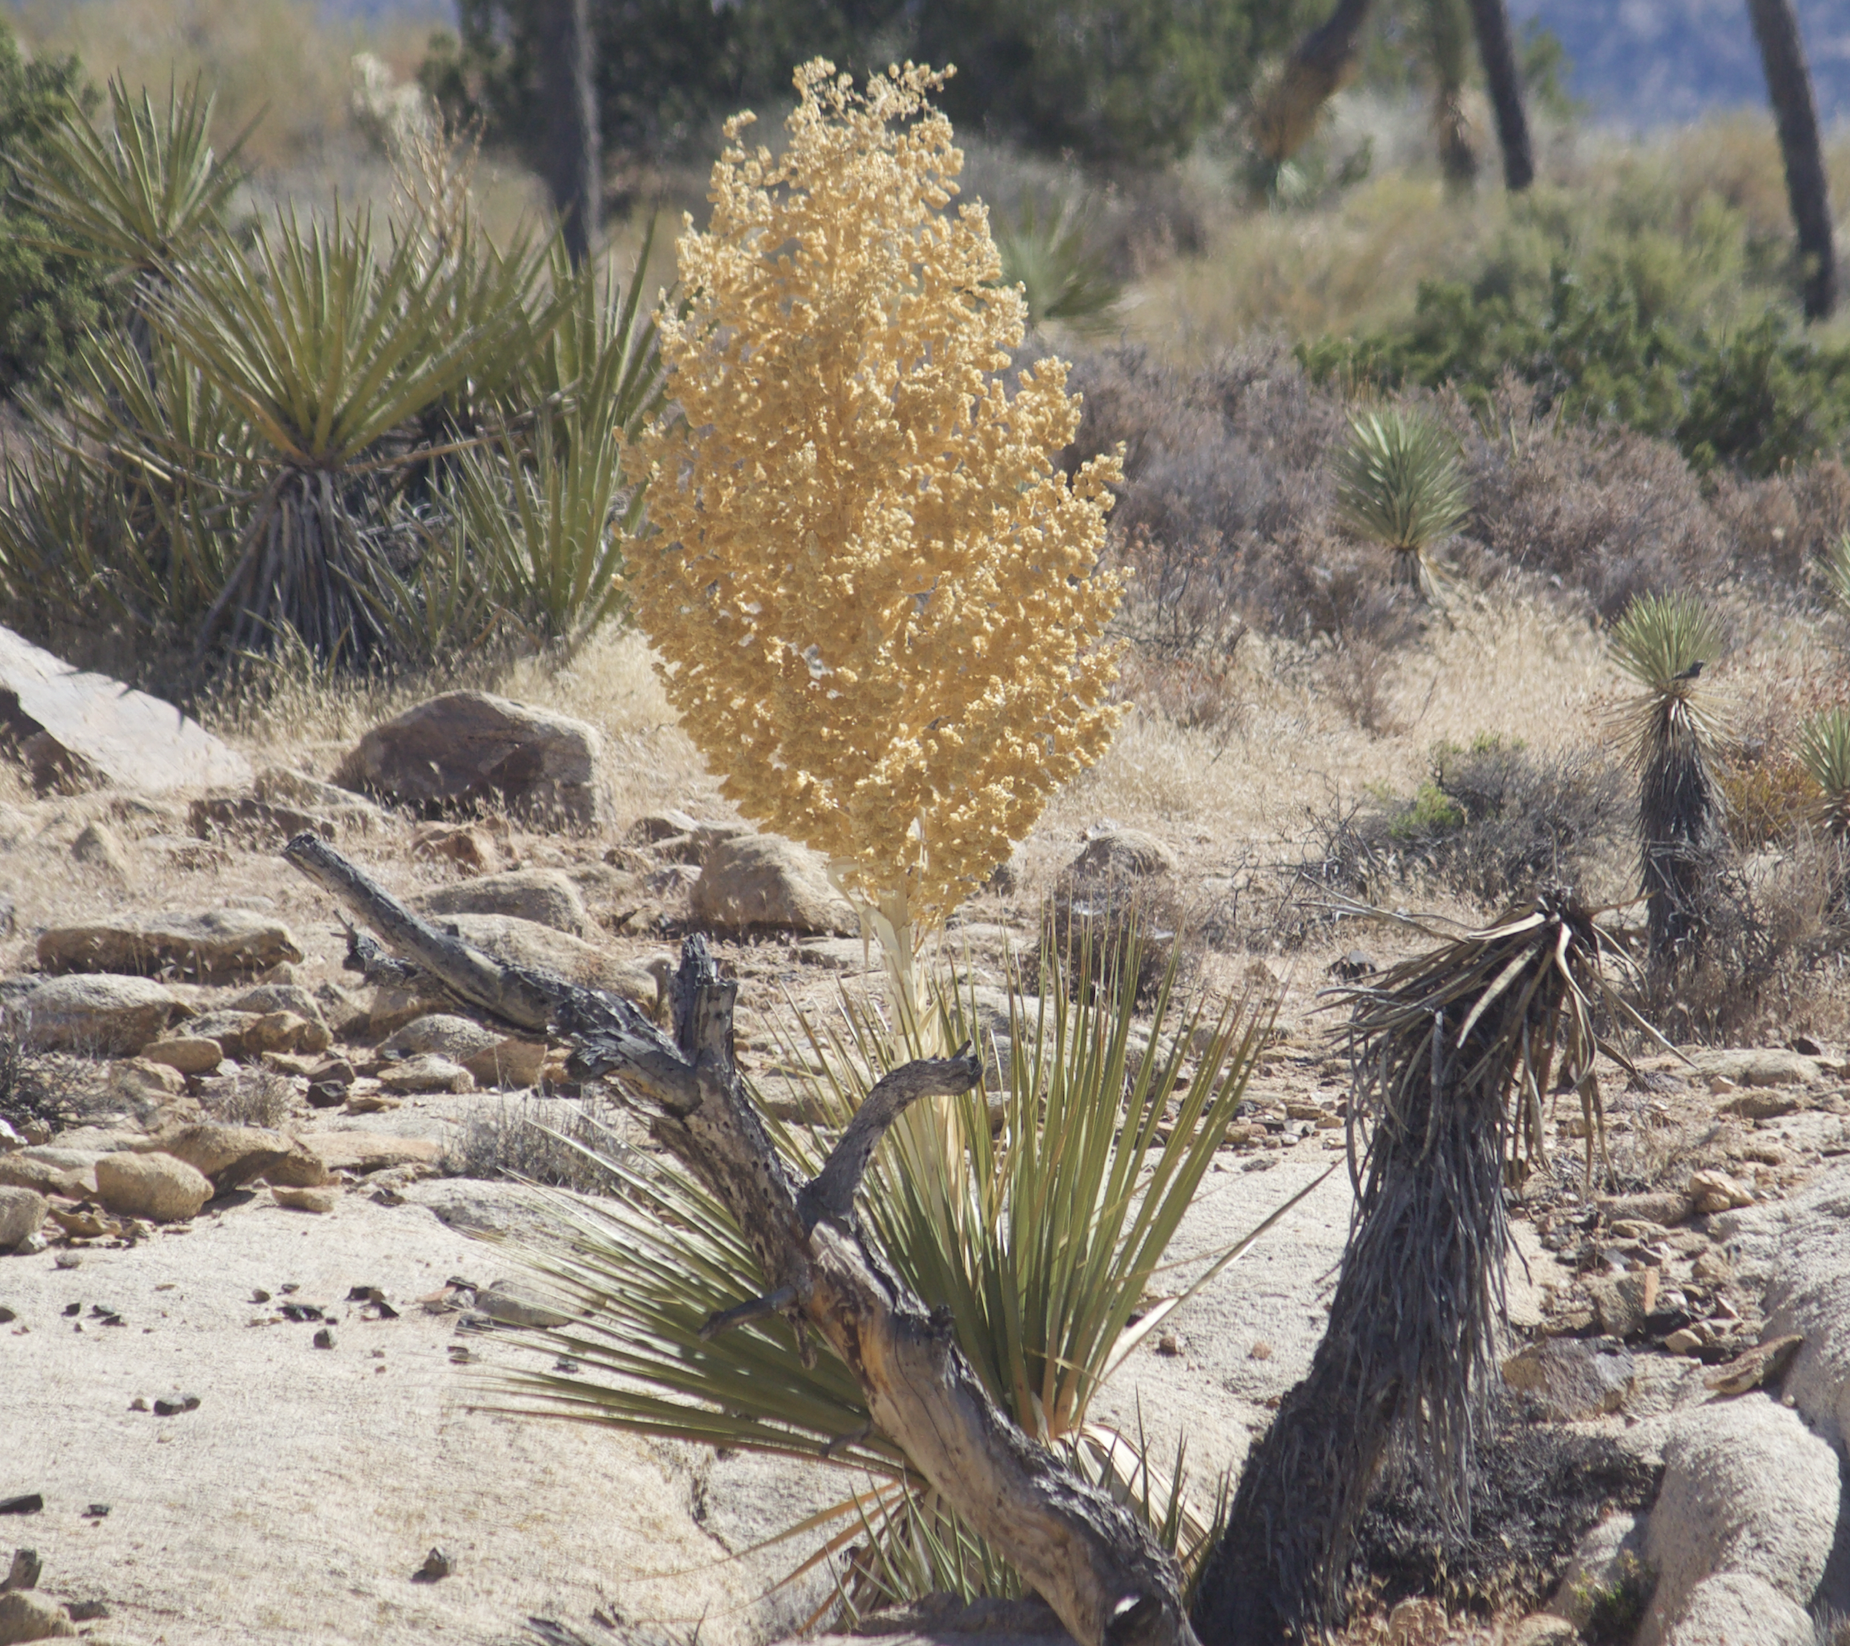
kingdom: Plantae
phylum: Tracheophyta
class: Liliopsida
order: Asparagales
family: Asparagaceae
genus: Nolina
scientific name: Nolina parryi
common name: Parry nolina
